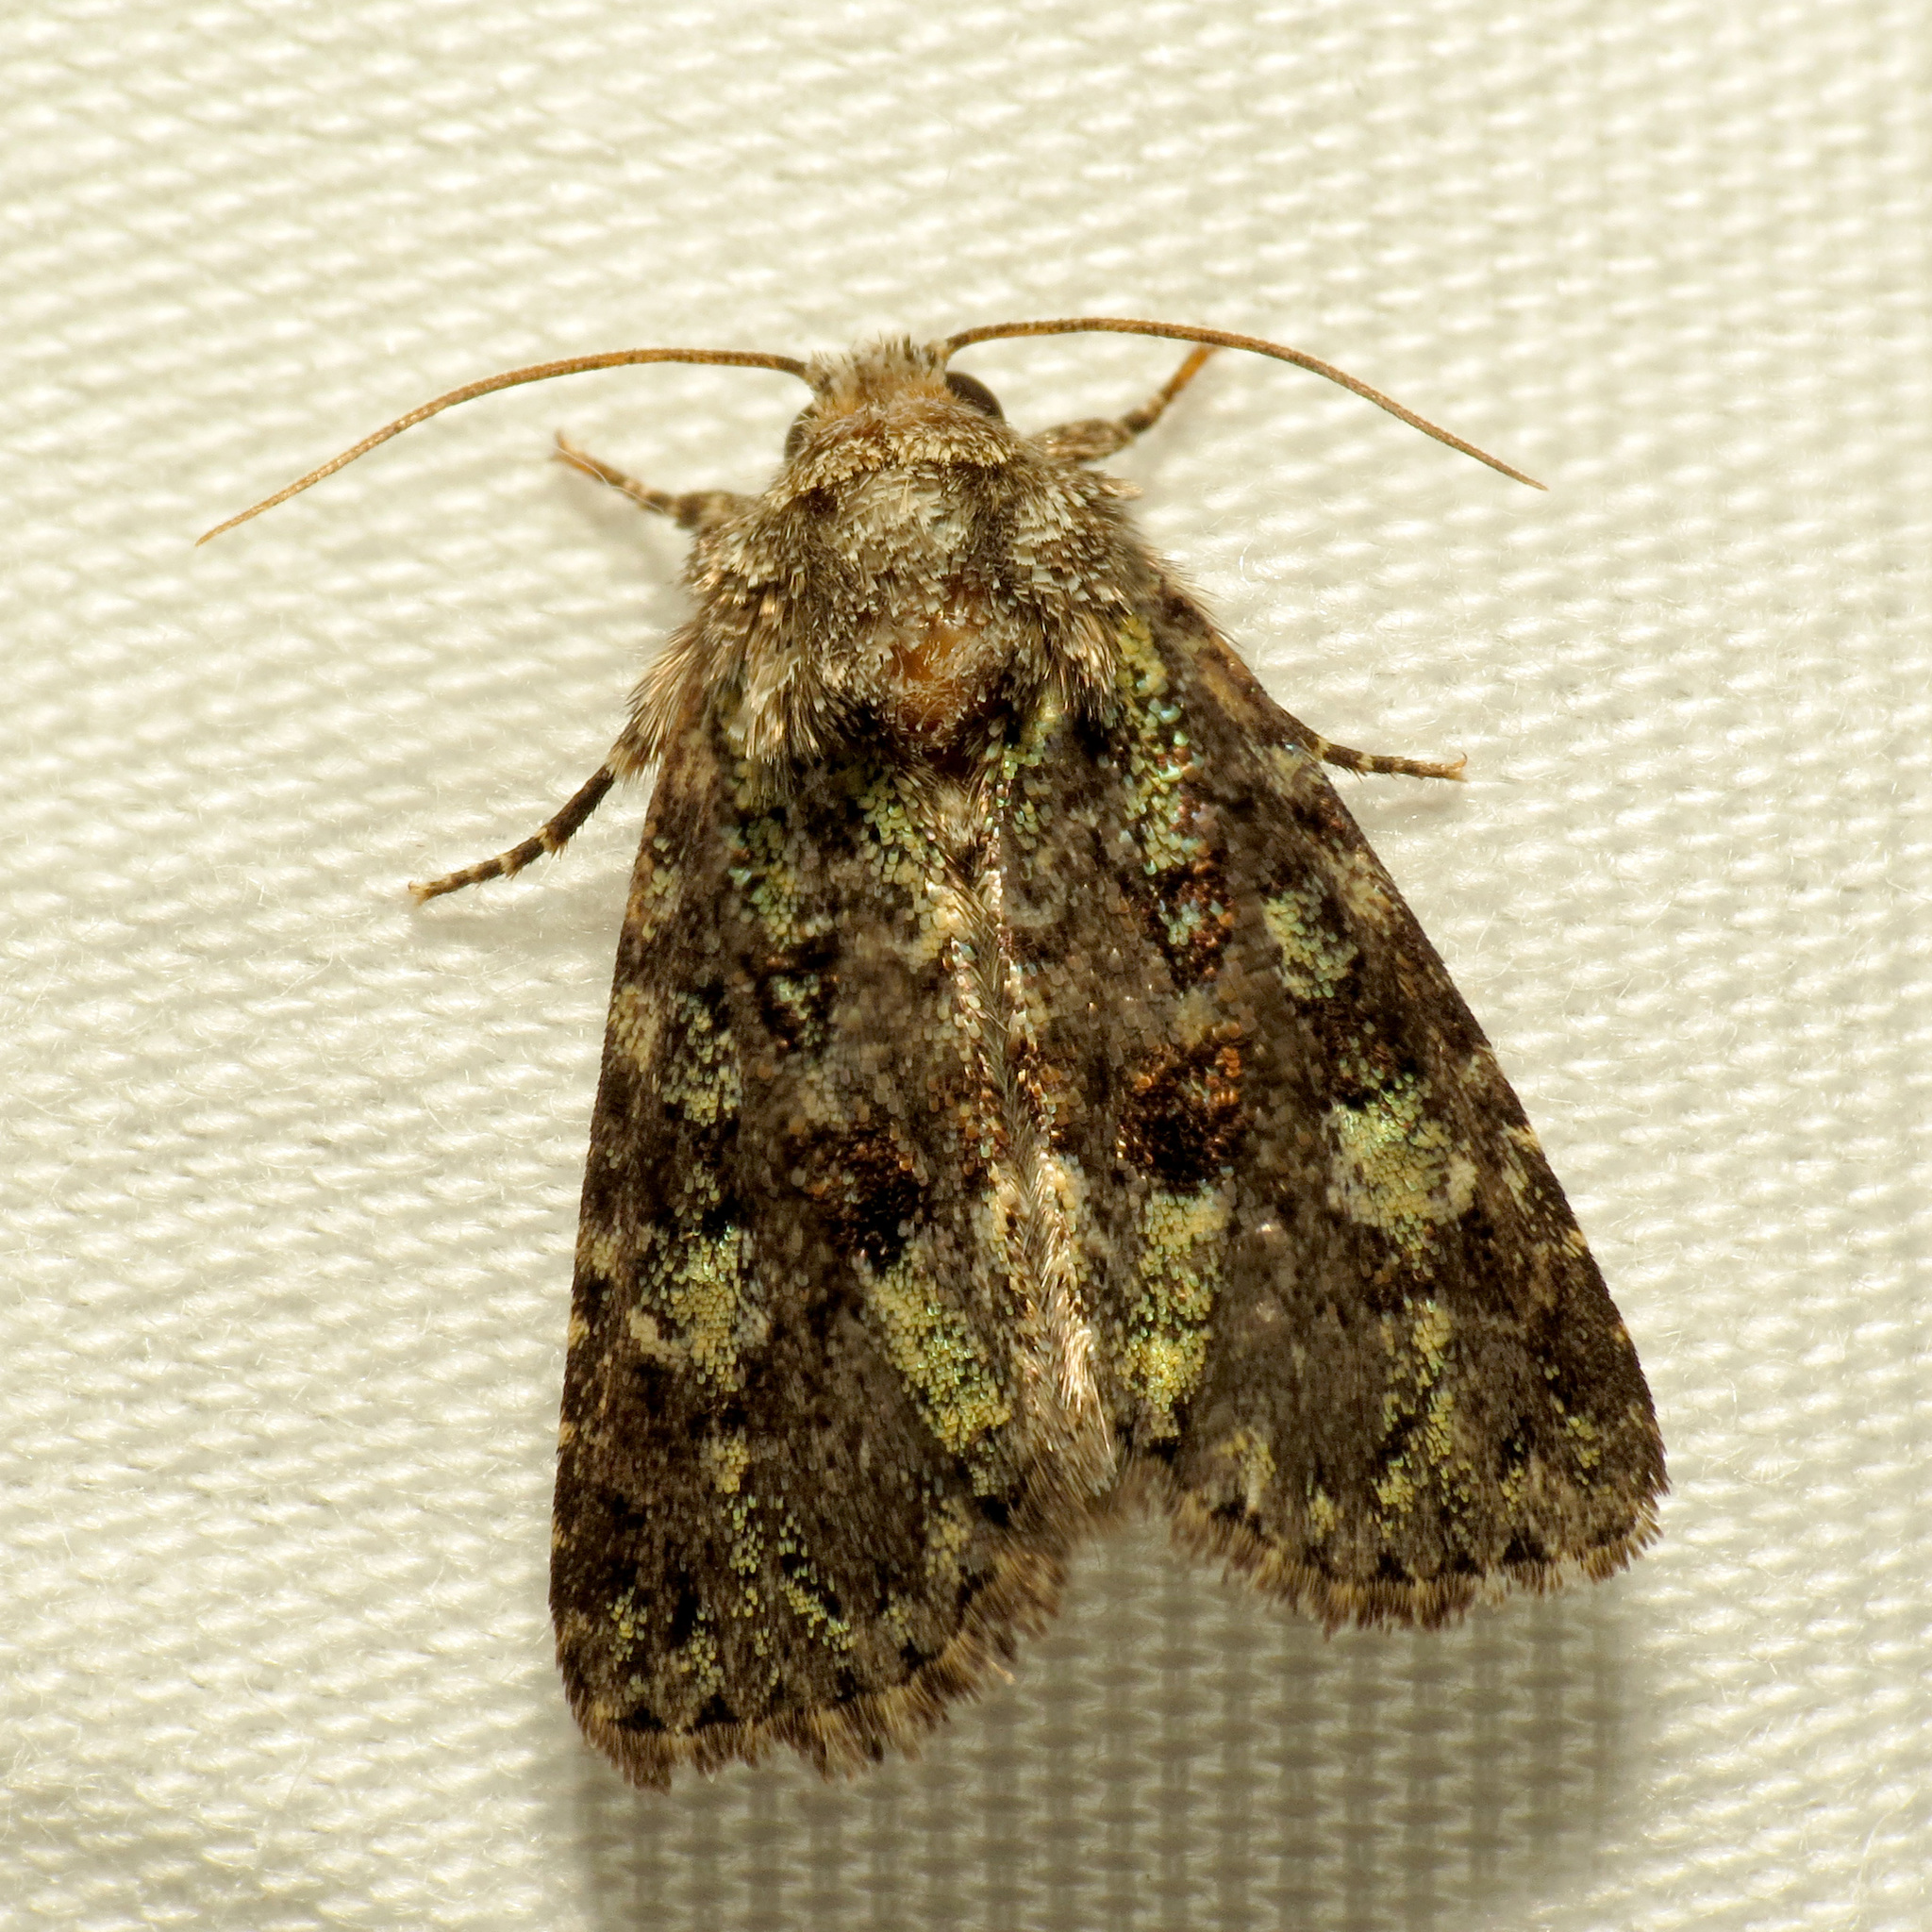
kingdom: Animalia
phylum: Arthropoda
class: Insecta
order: Lepidoptera
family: Noctuidae
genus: Paramiana
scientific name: Paramiana smaragdina
